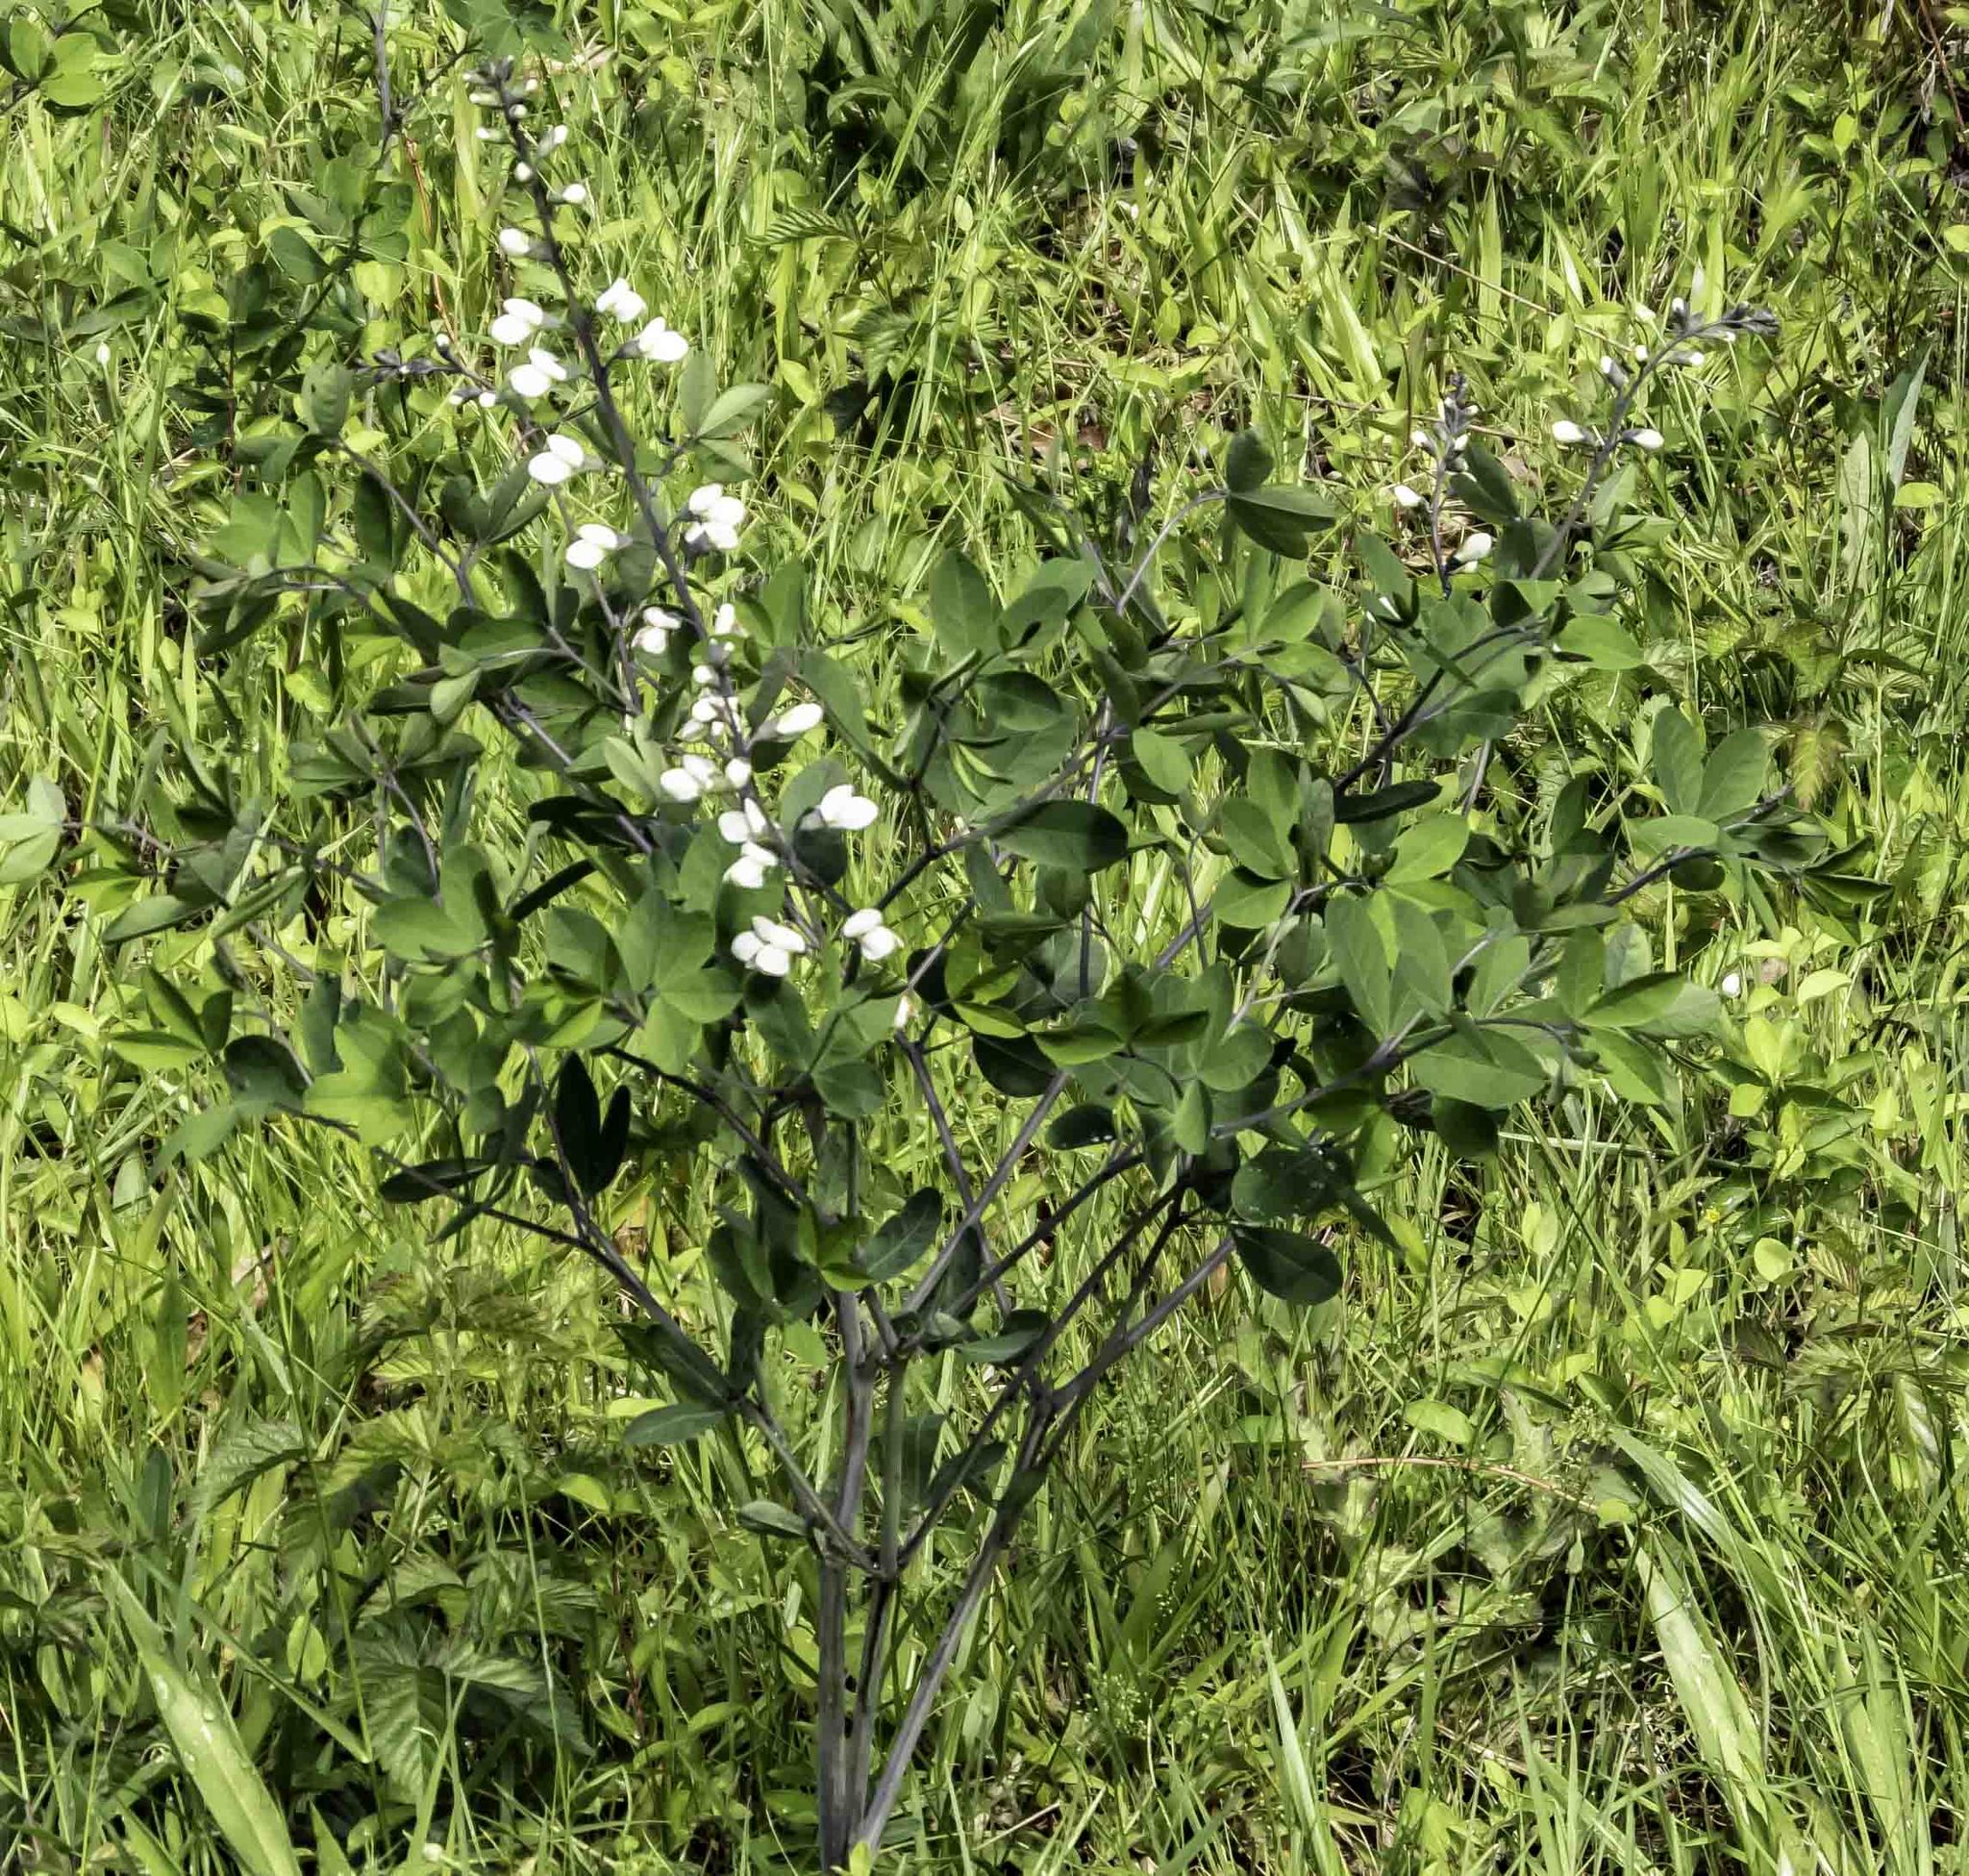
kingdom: Plantae
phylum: Tracheophyta
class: Magnoliopsida
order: Fabales
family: Fabaceae
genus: Baptisia
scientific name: Baptisia alba
